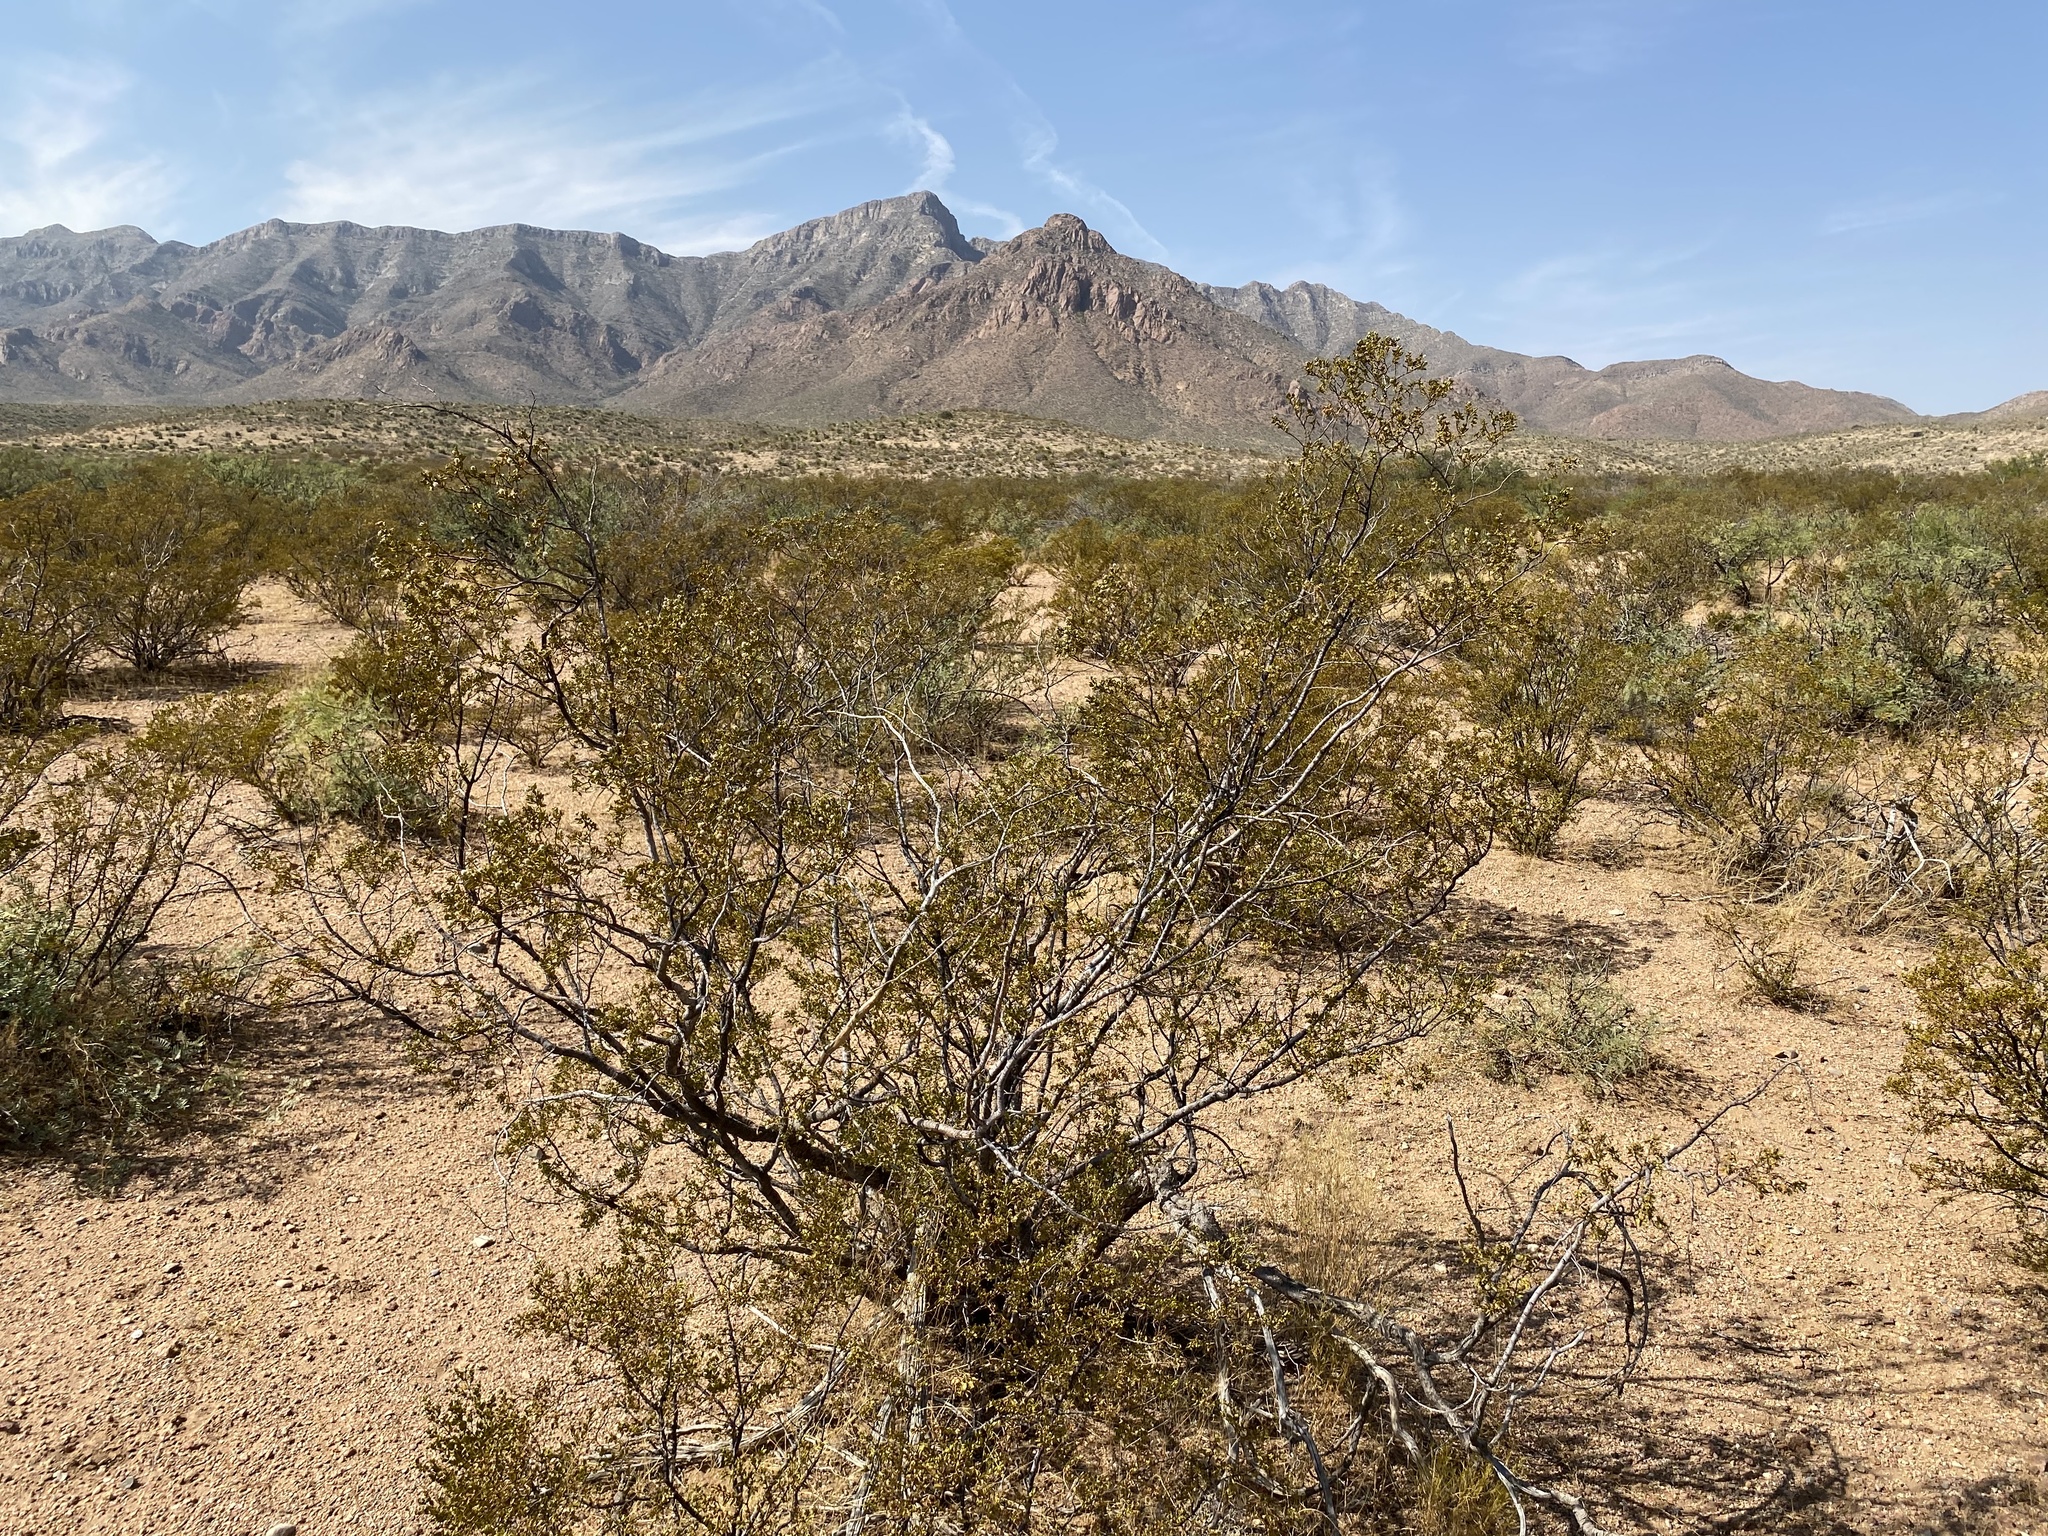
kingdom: Plantae
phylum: Tracheophyta
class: Magnoliopsida
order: Zygophyllales
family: Zygophyllaceae
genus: Larrea
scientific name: Larrea tridentata
